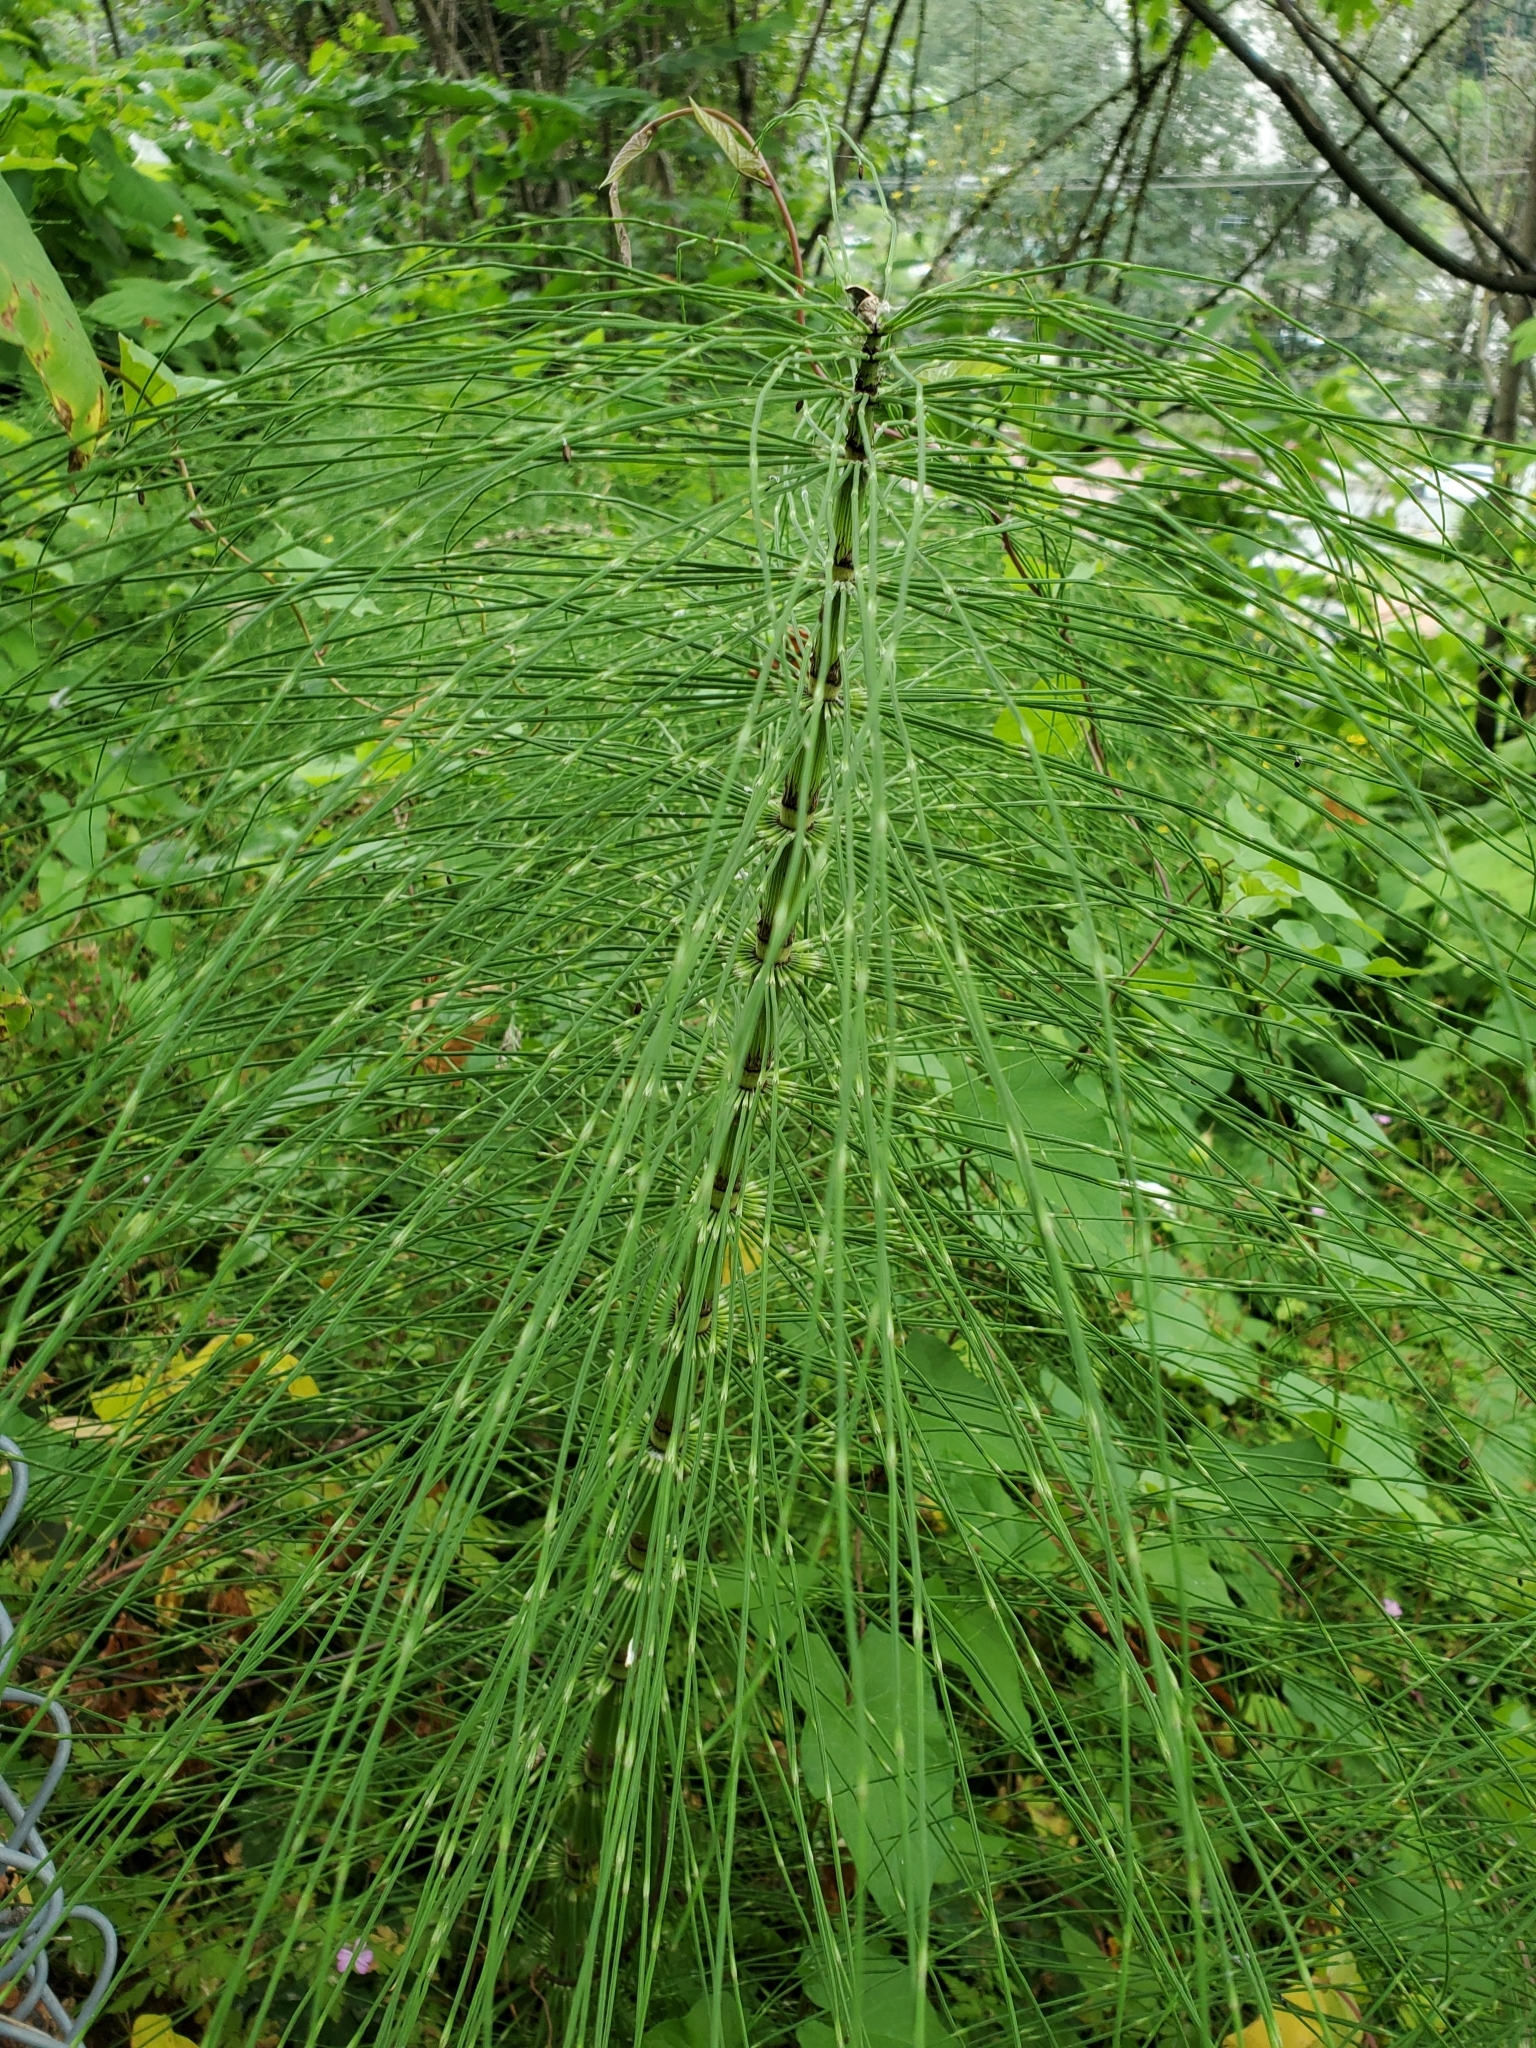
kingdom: Plantae
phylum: Tracheophyta
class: Polypodiopsida
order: Equisetales
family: Equisetaceae
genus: Equisetum
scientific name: Equisetum braunii
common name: Braun's horsetail
